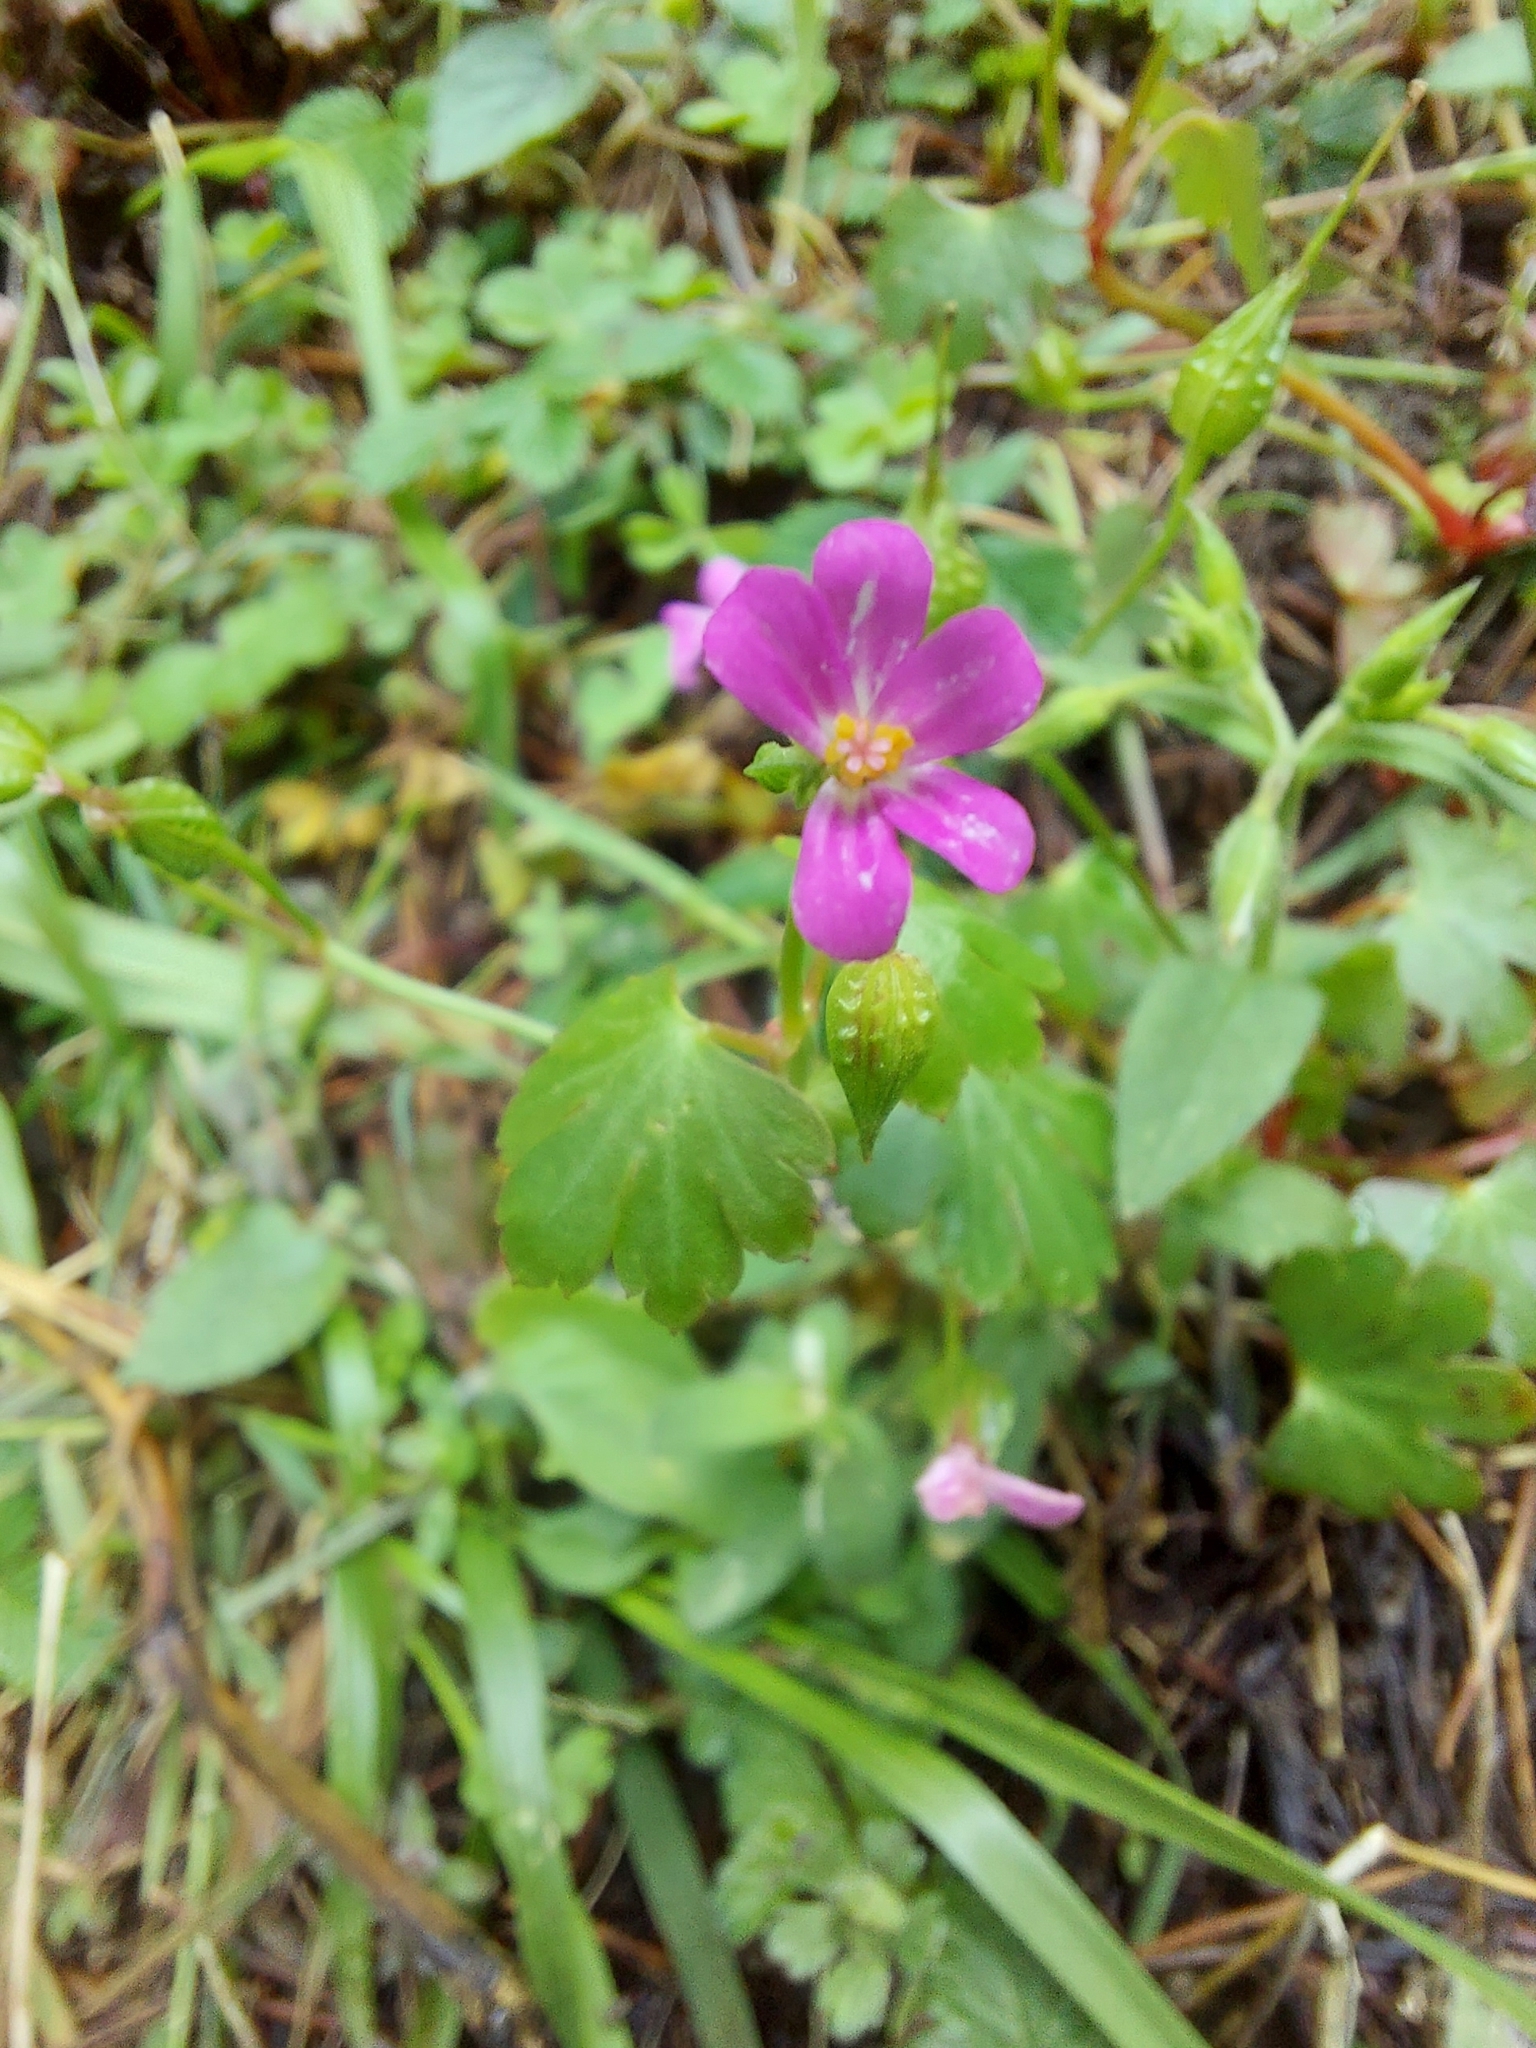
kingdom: Plantae
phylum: Tracheophyta
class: Magnoliopsida
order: Geraniales
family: Geraniaceae
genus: Geranium
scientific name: Geranium lucidum
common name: Shining crane's-bill
